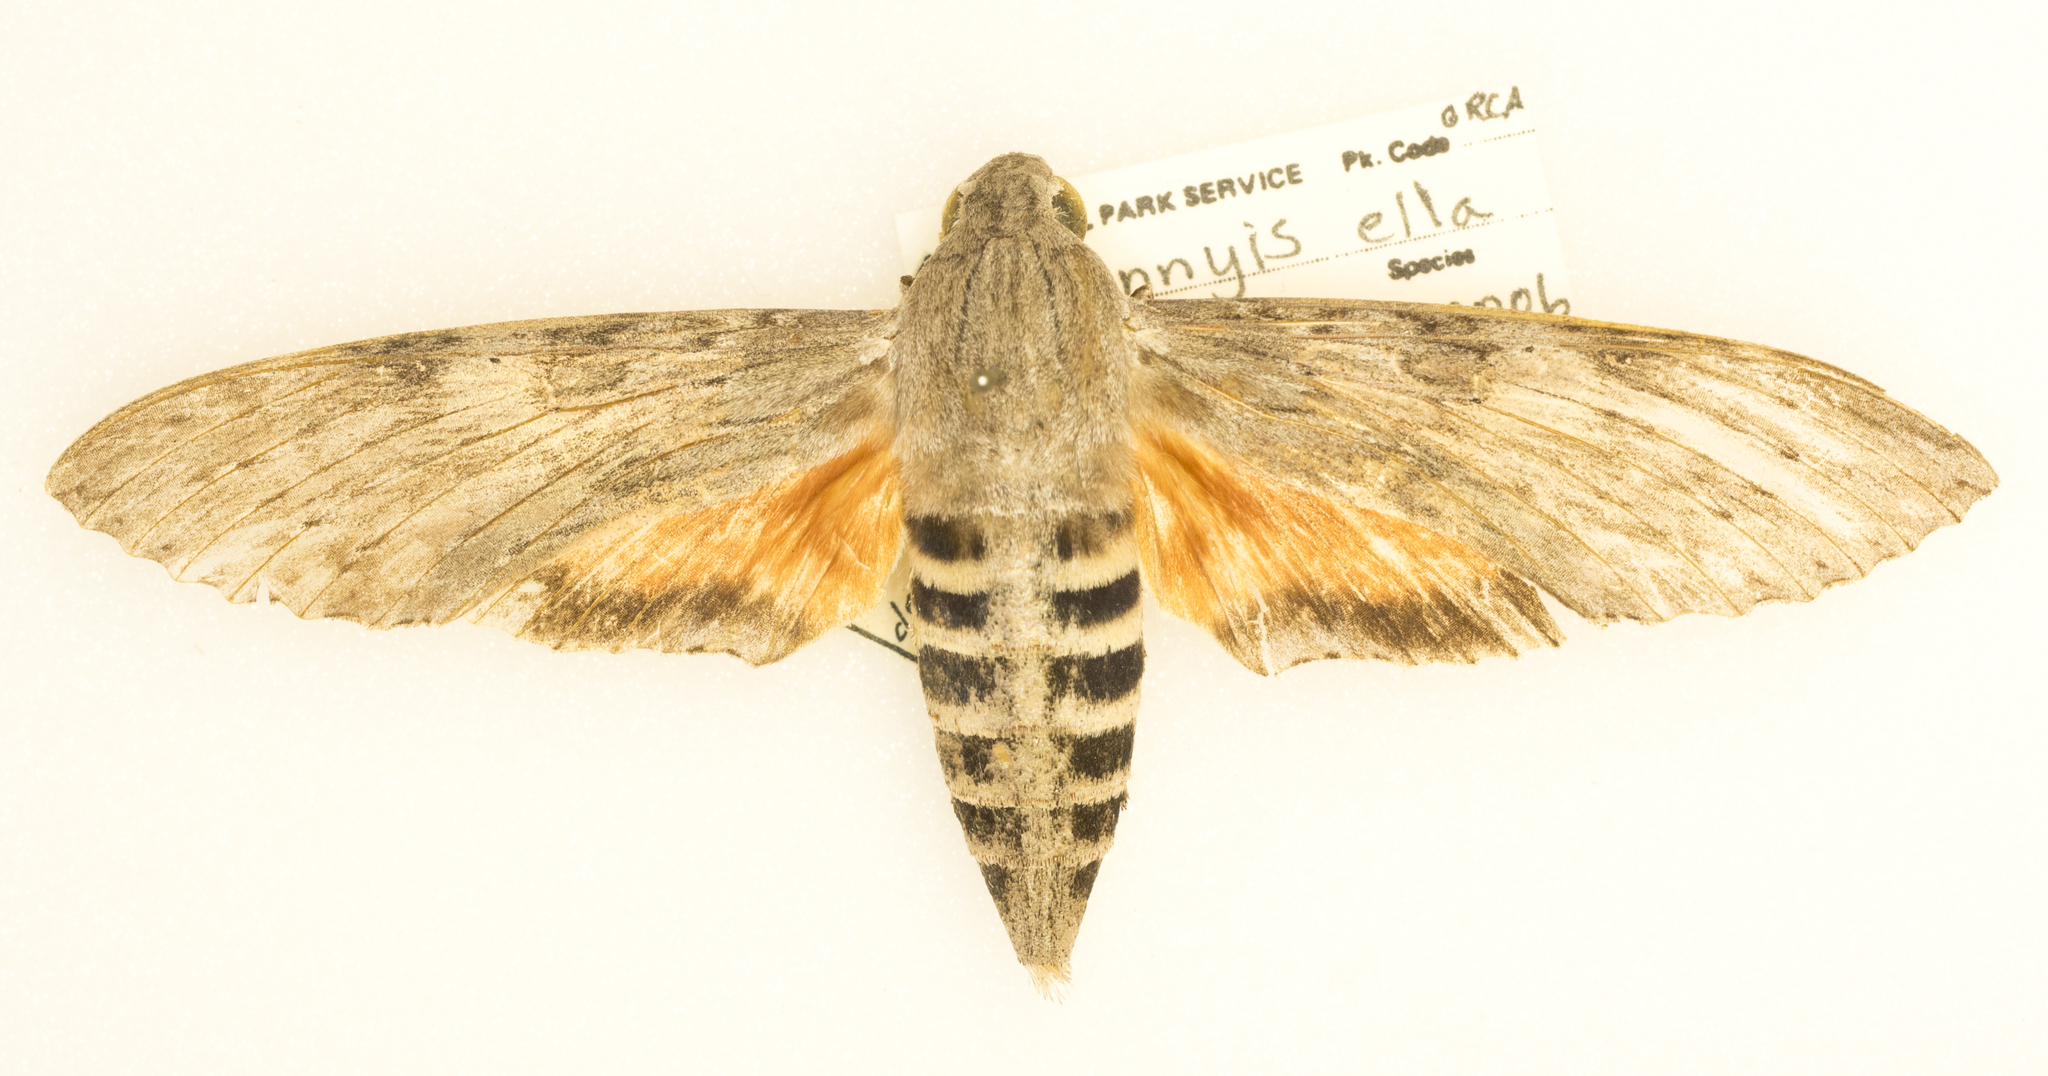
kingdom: Animalia
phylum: Arthropoda
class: Insecta
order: Lepidoptera
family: Sphingidae
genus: Erinnyis
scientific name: Erinnyis ello
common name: Ello sphinx
